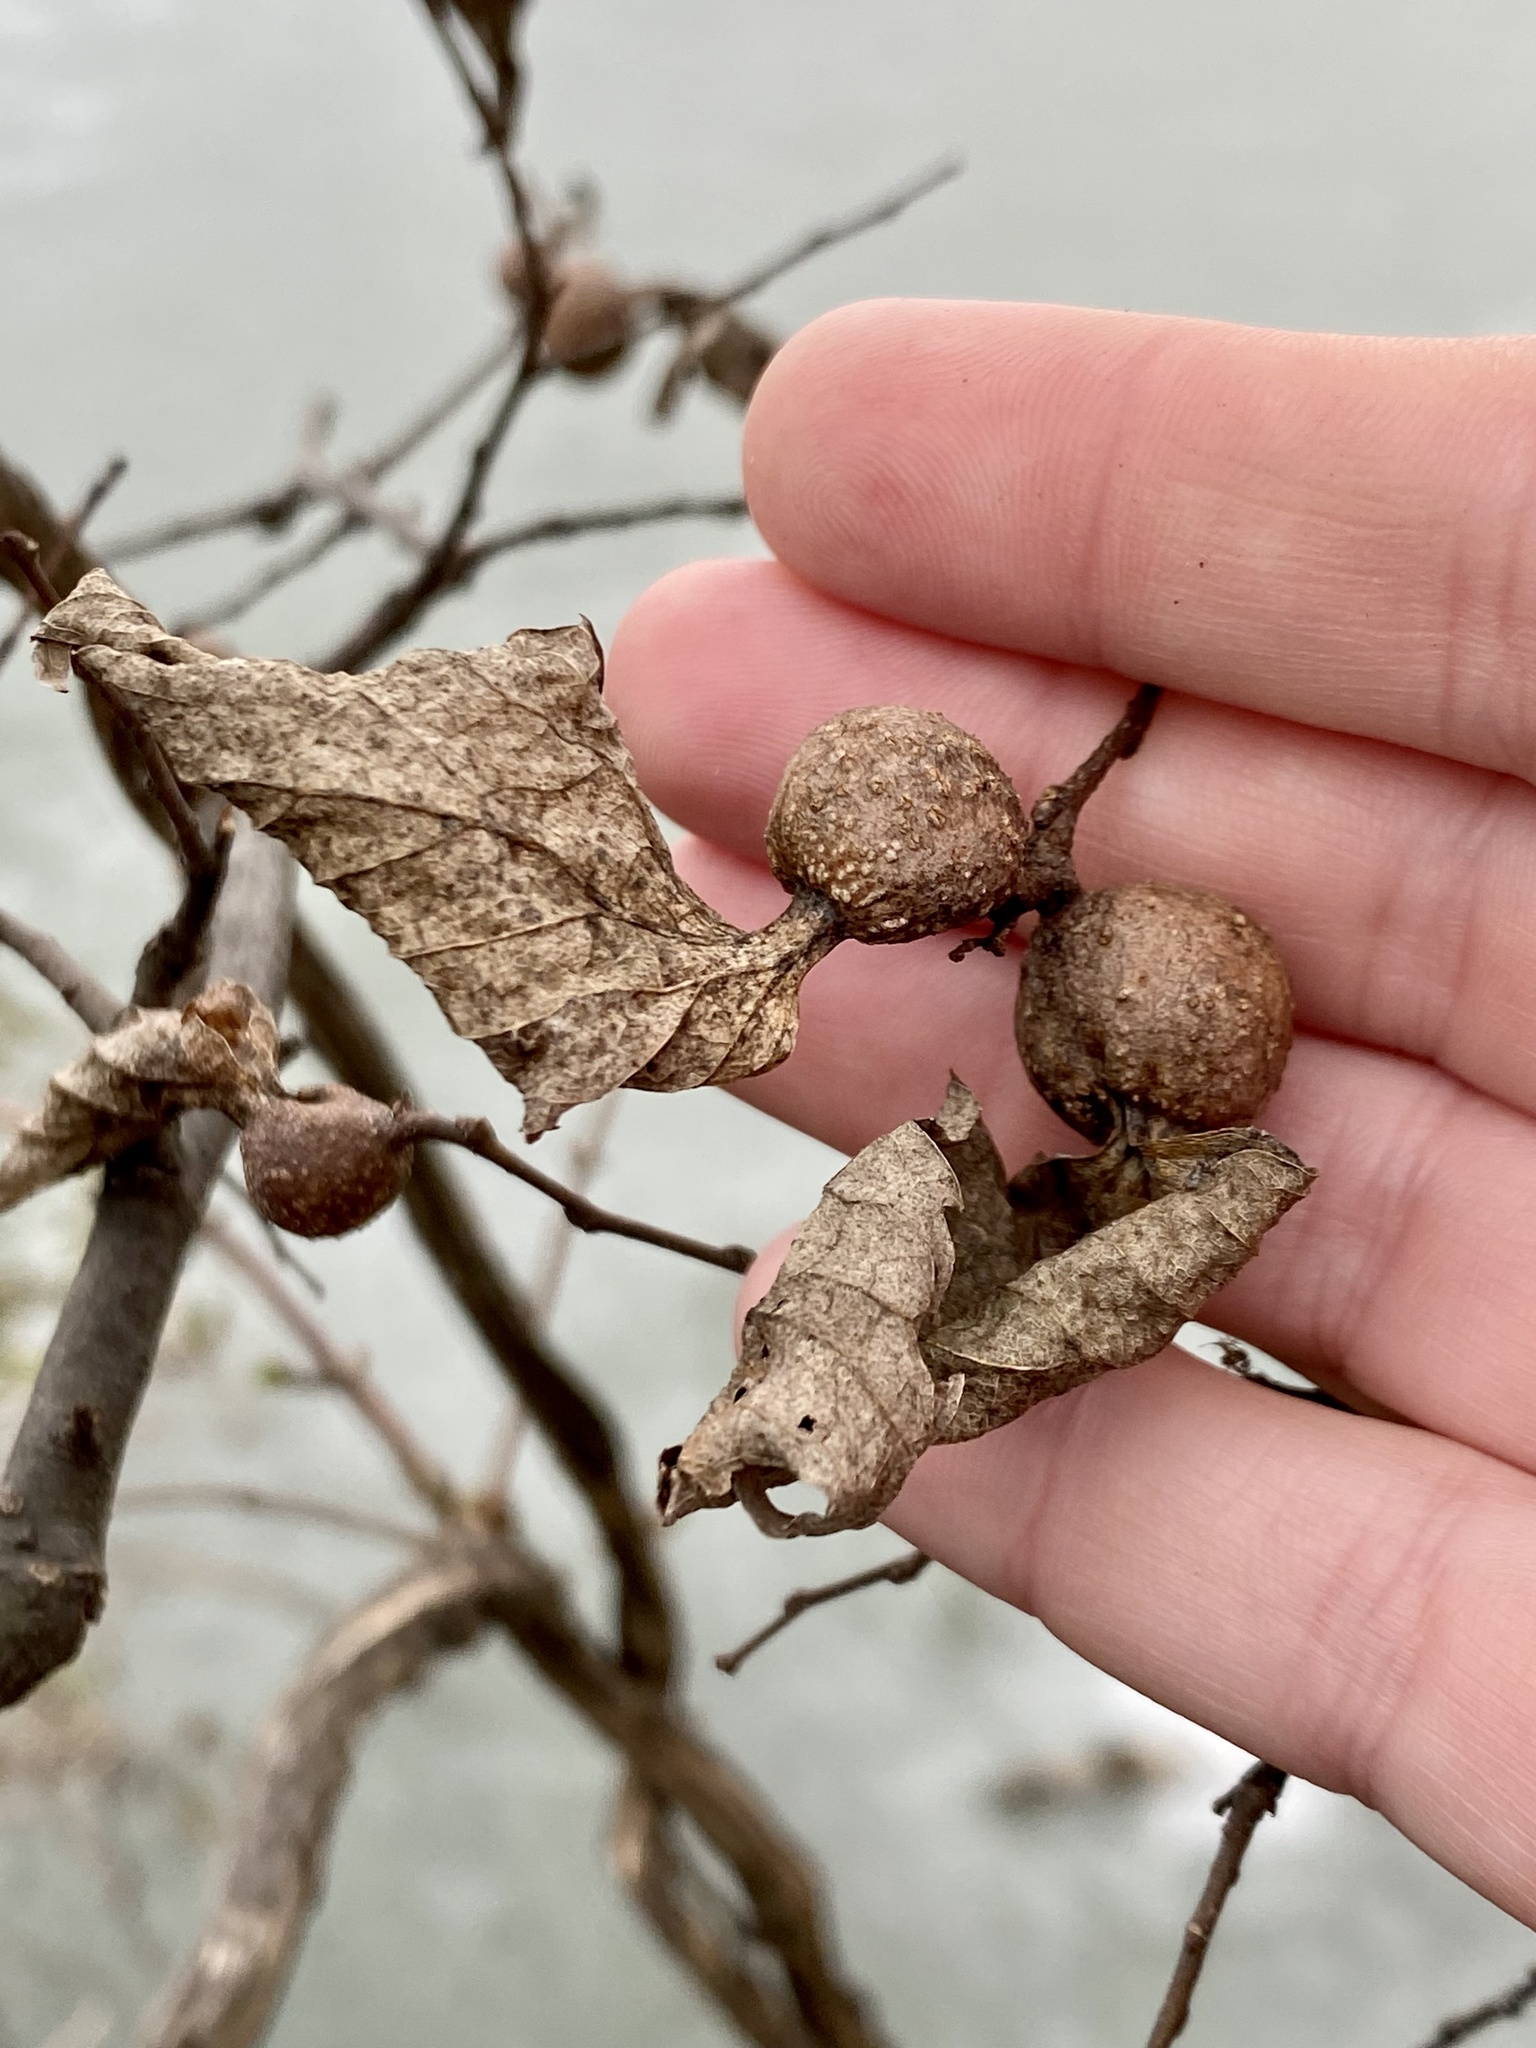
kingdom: Animalia
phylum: Arthropoda
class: Insecta
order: Hemiptera
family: Aphalaridae
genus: Pachypsylla
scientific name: Pachypsylla venusta
